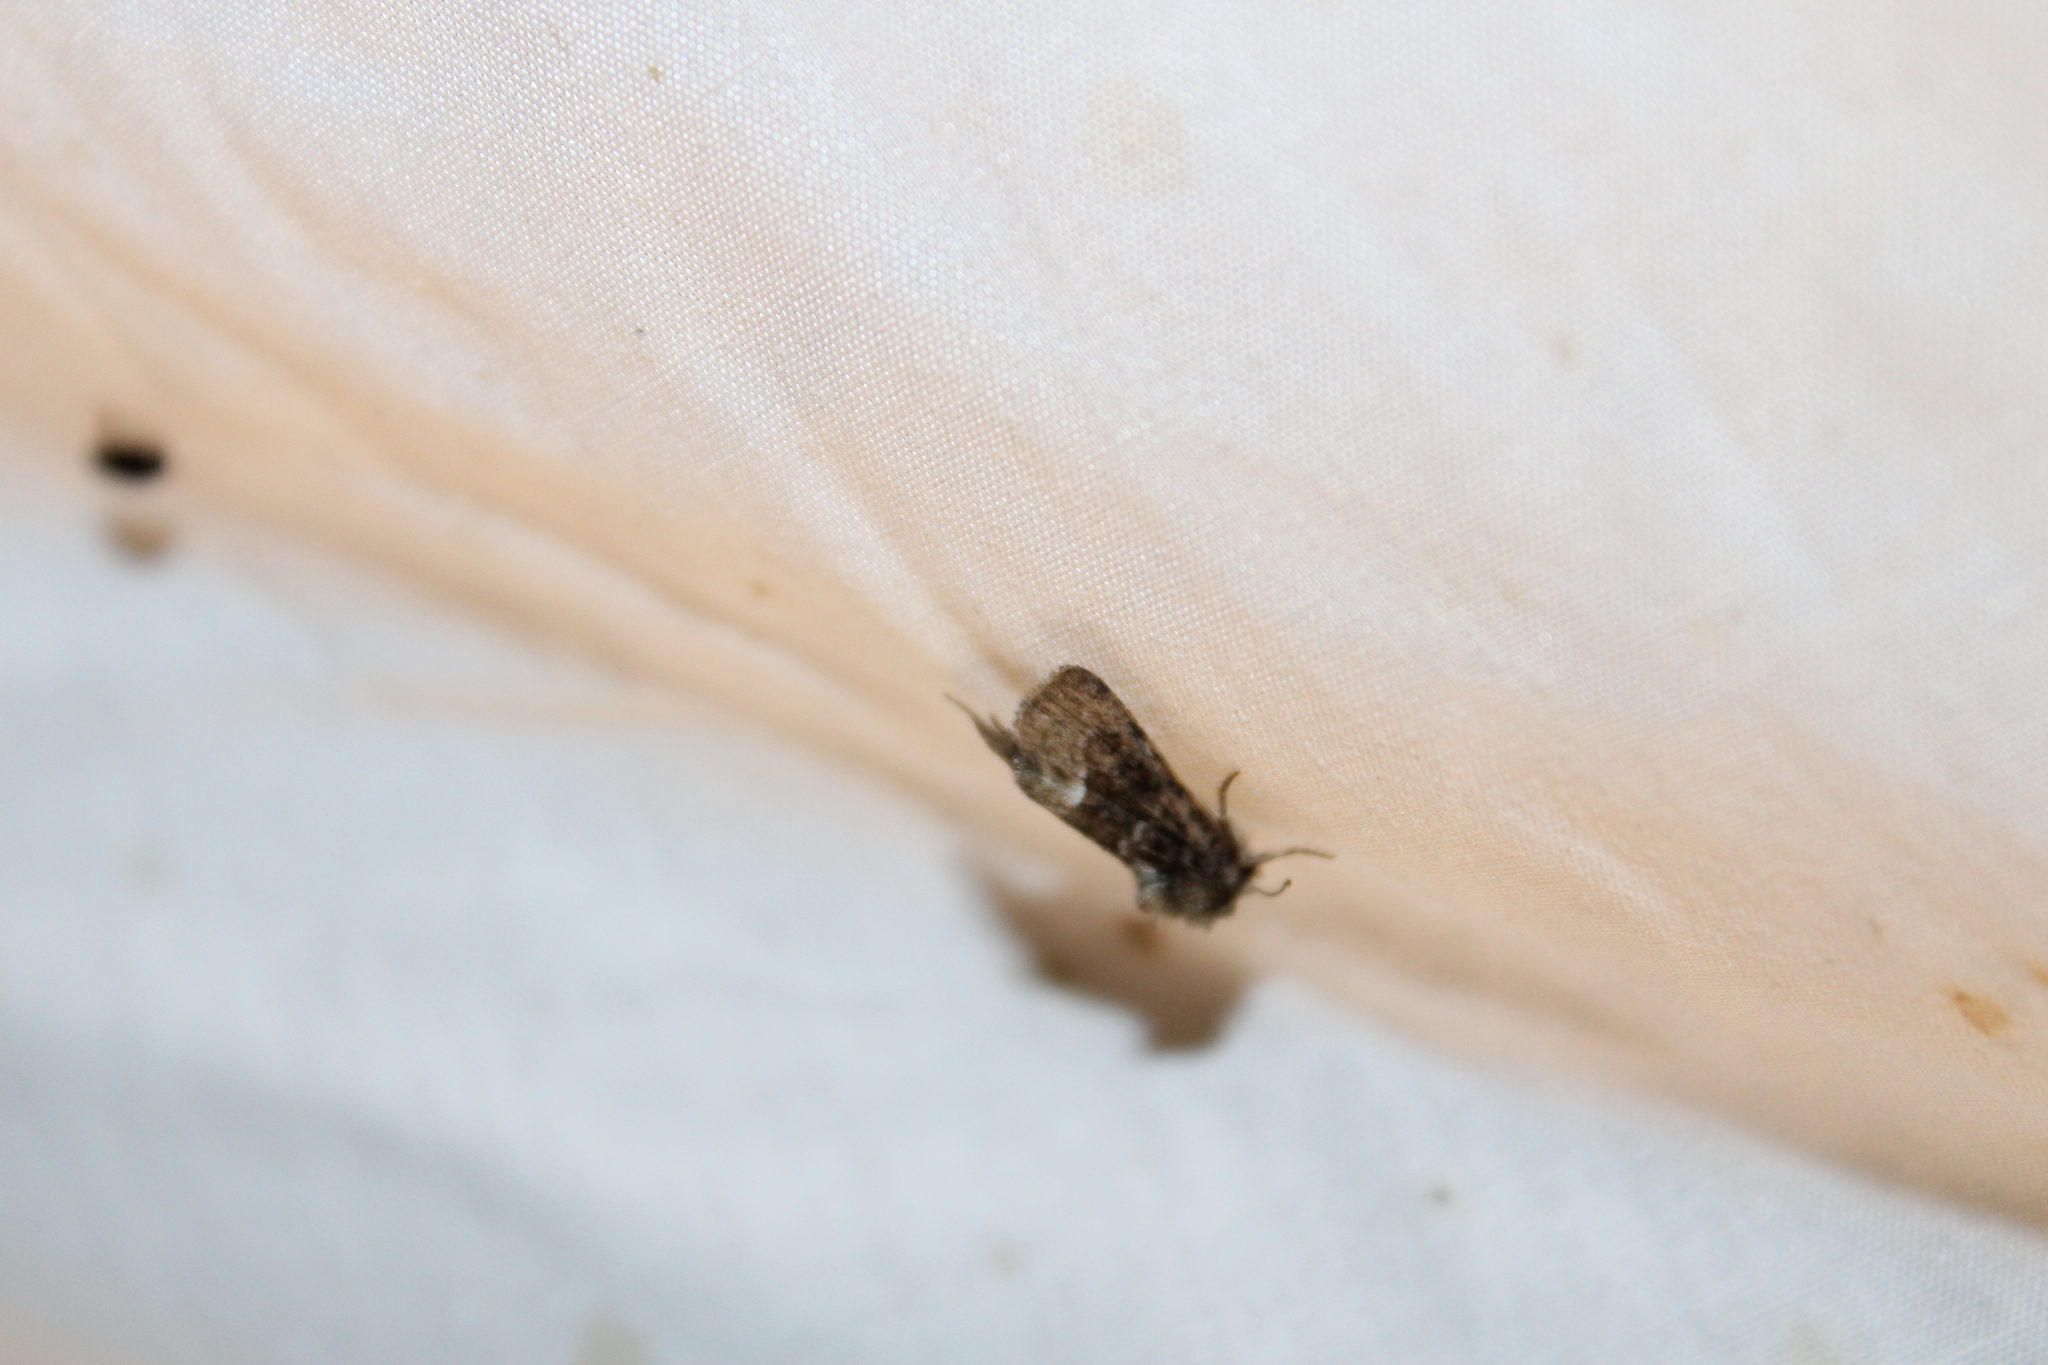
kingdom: Animalia
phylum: Arthropoda
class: Insecta
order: Lepidoptera
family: Noctuidae
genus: Oligia
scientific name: Oligia strigilis
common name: Marbled minor
